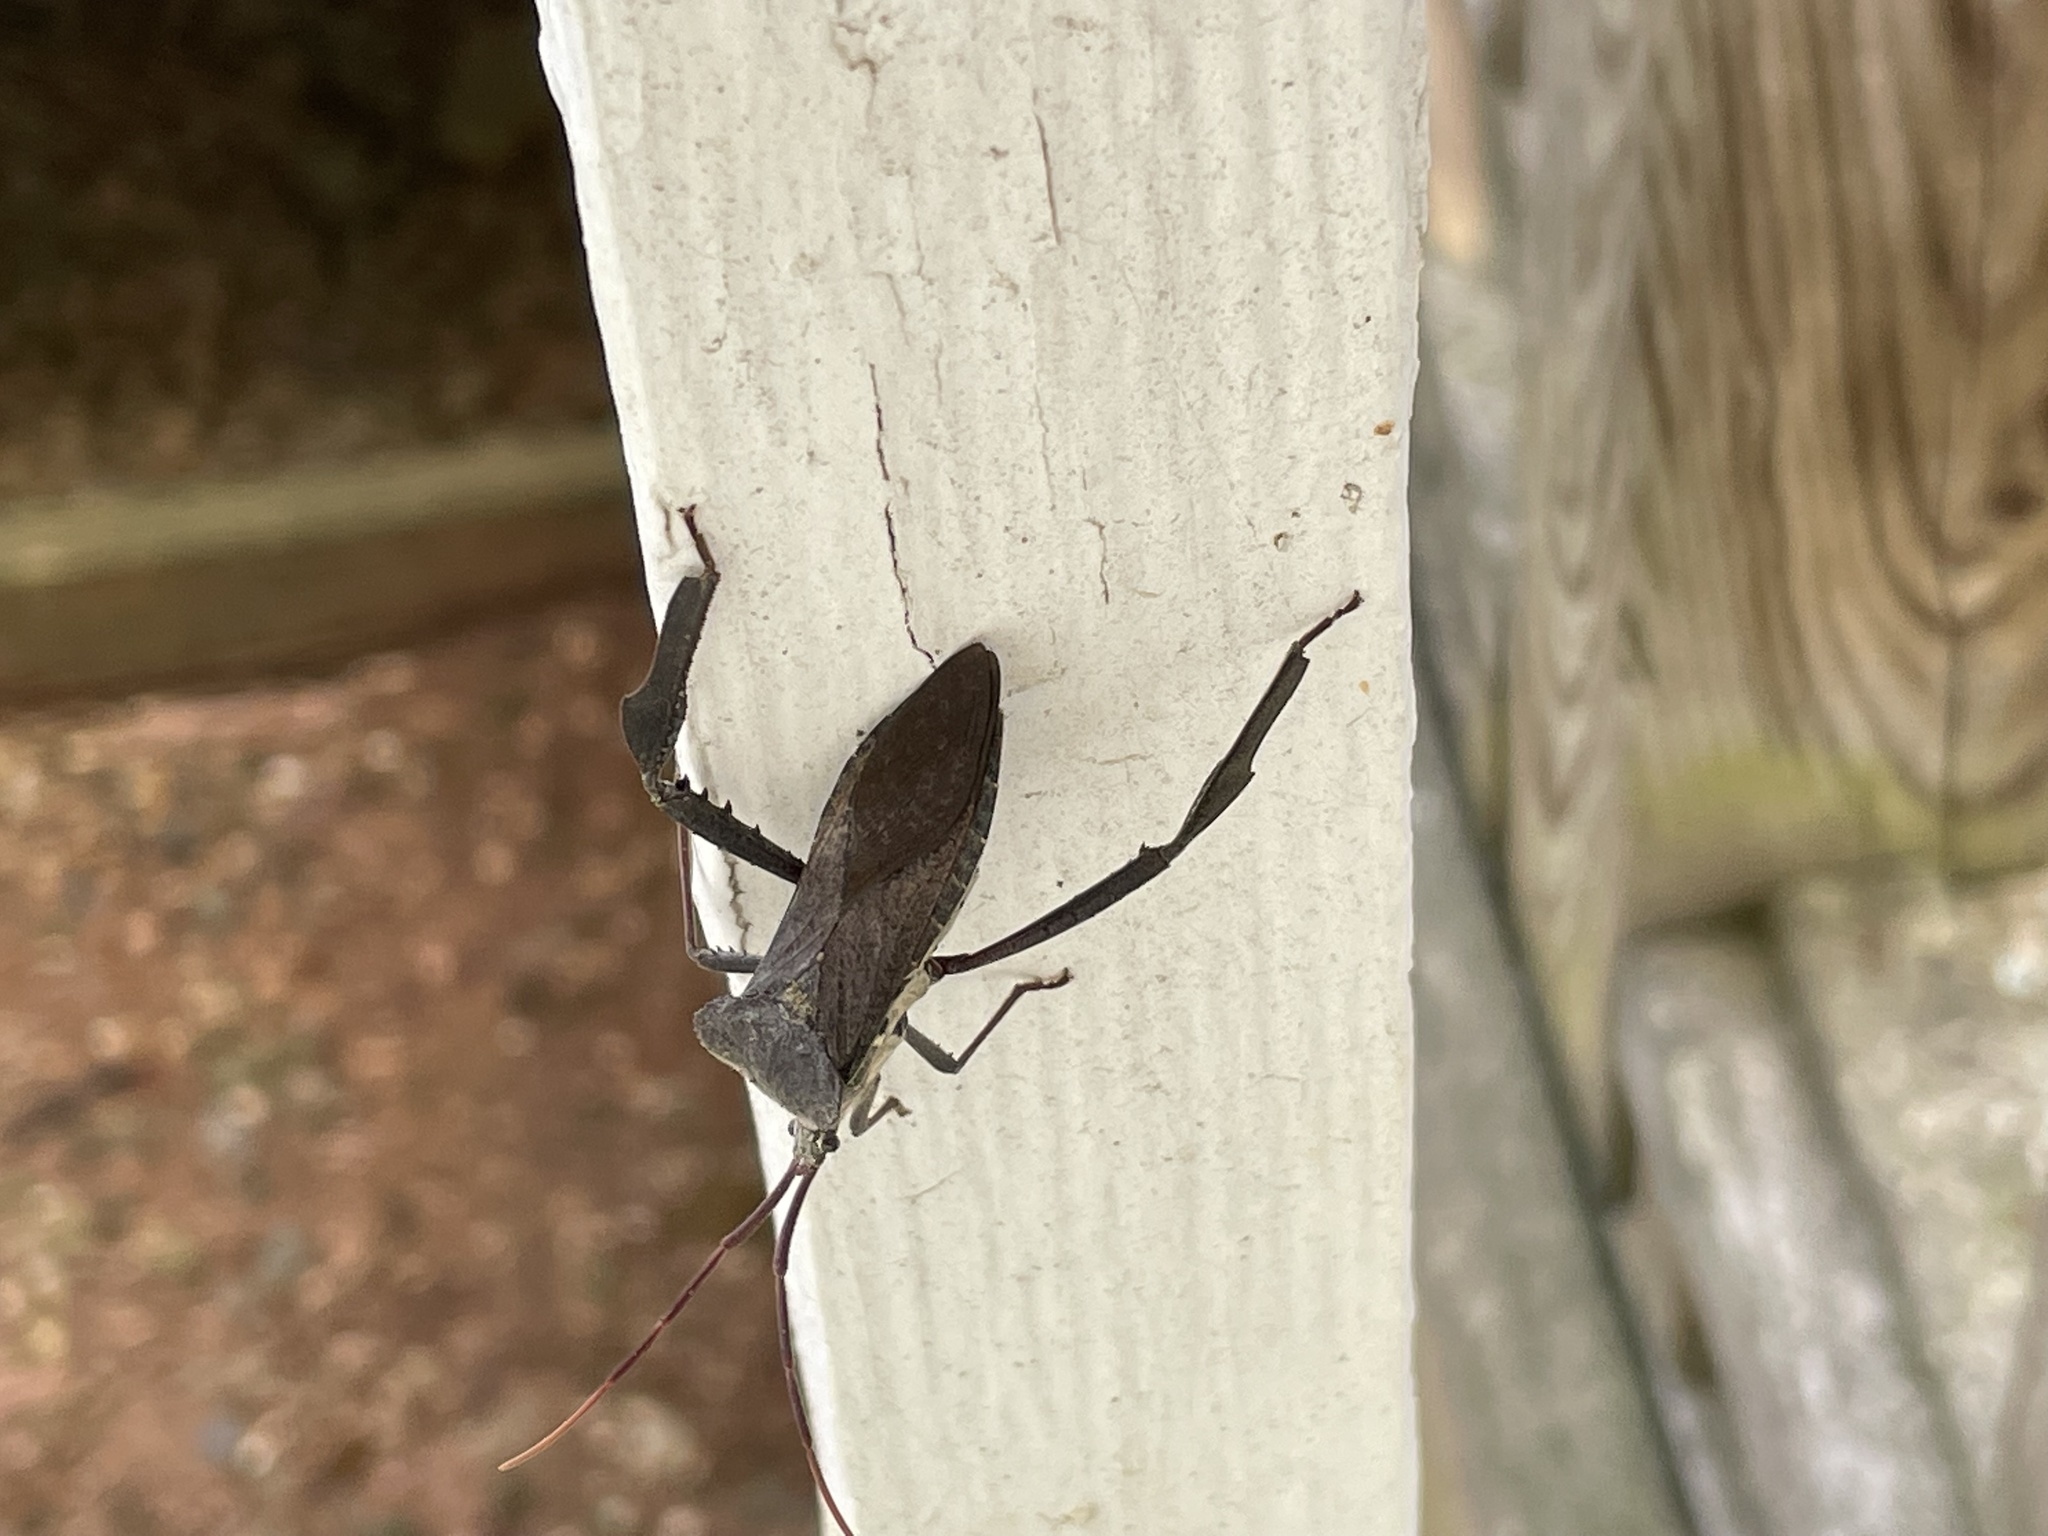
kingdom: Animalia
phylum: Arthropoda
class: Insecta
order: Hemiptera
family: Coreidae
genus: Acanthocephala
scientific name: Acanthocephala declivis
